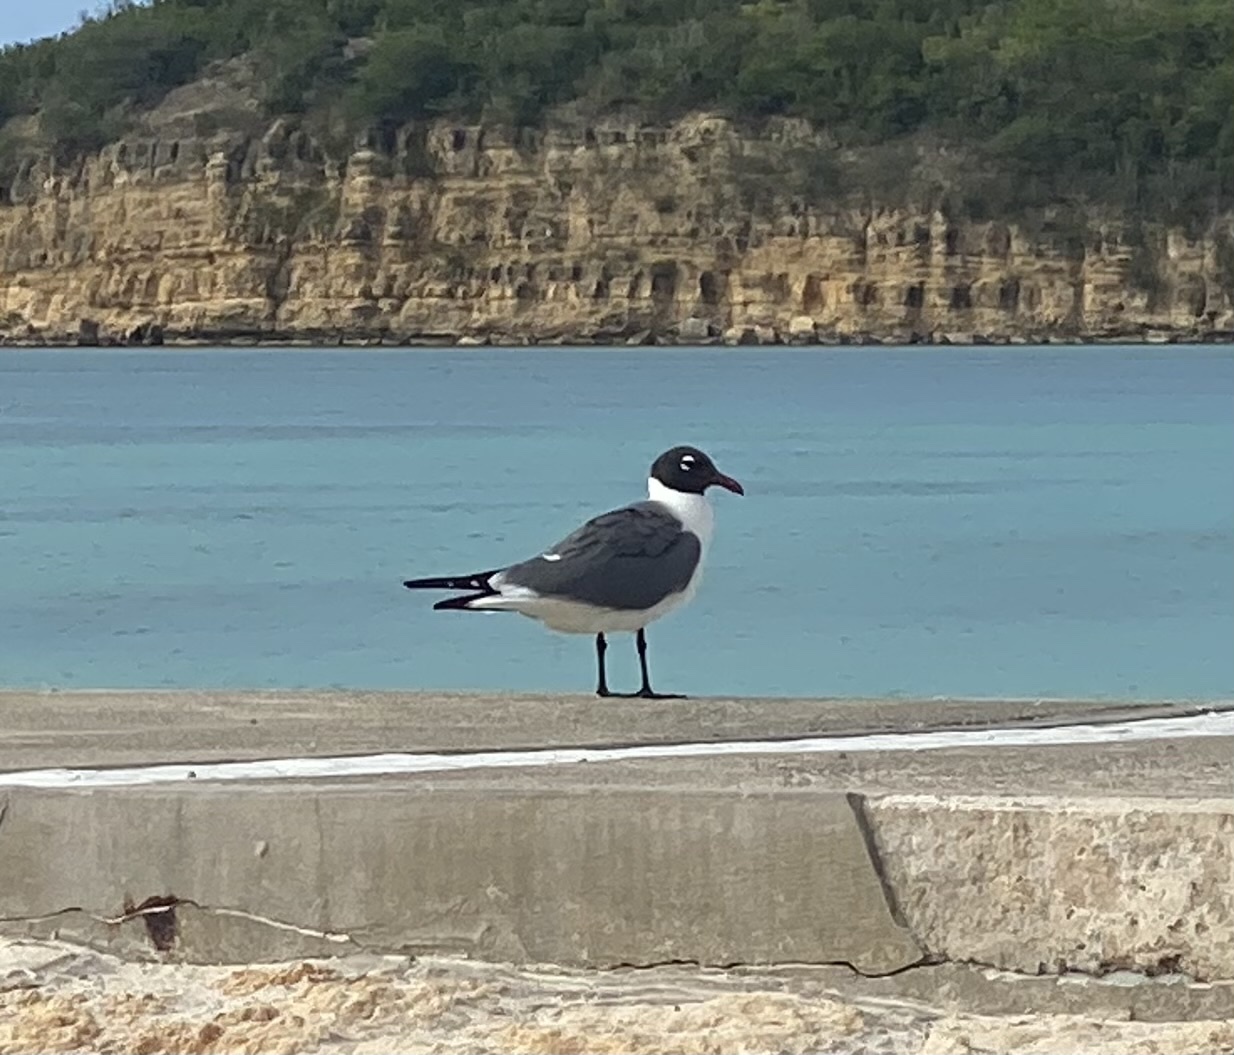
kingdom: Animalia
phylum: Chordata
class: Aves
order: Charadriiformes
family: Laridae
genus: Leucophaeus
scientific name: Leucophaeus atricilla
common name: Laughing gull
